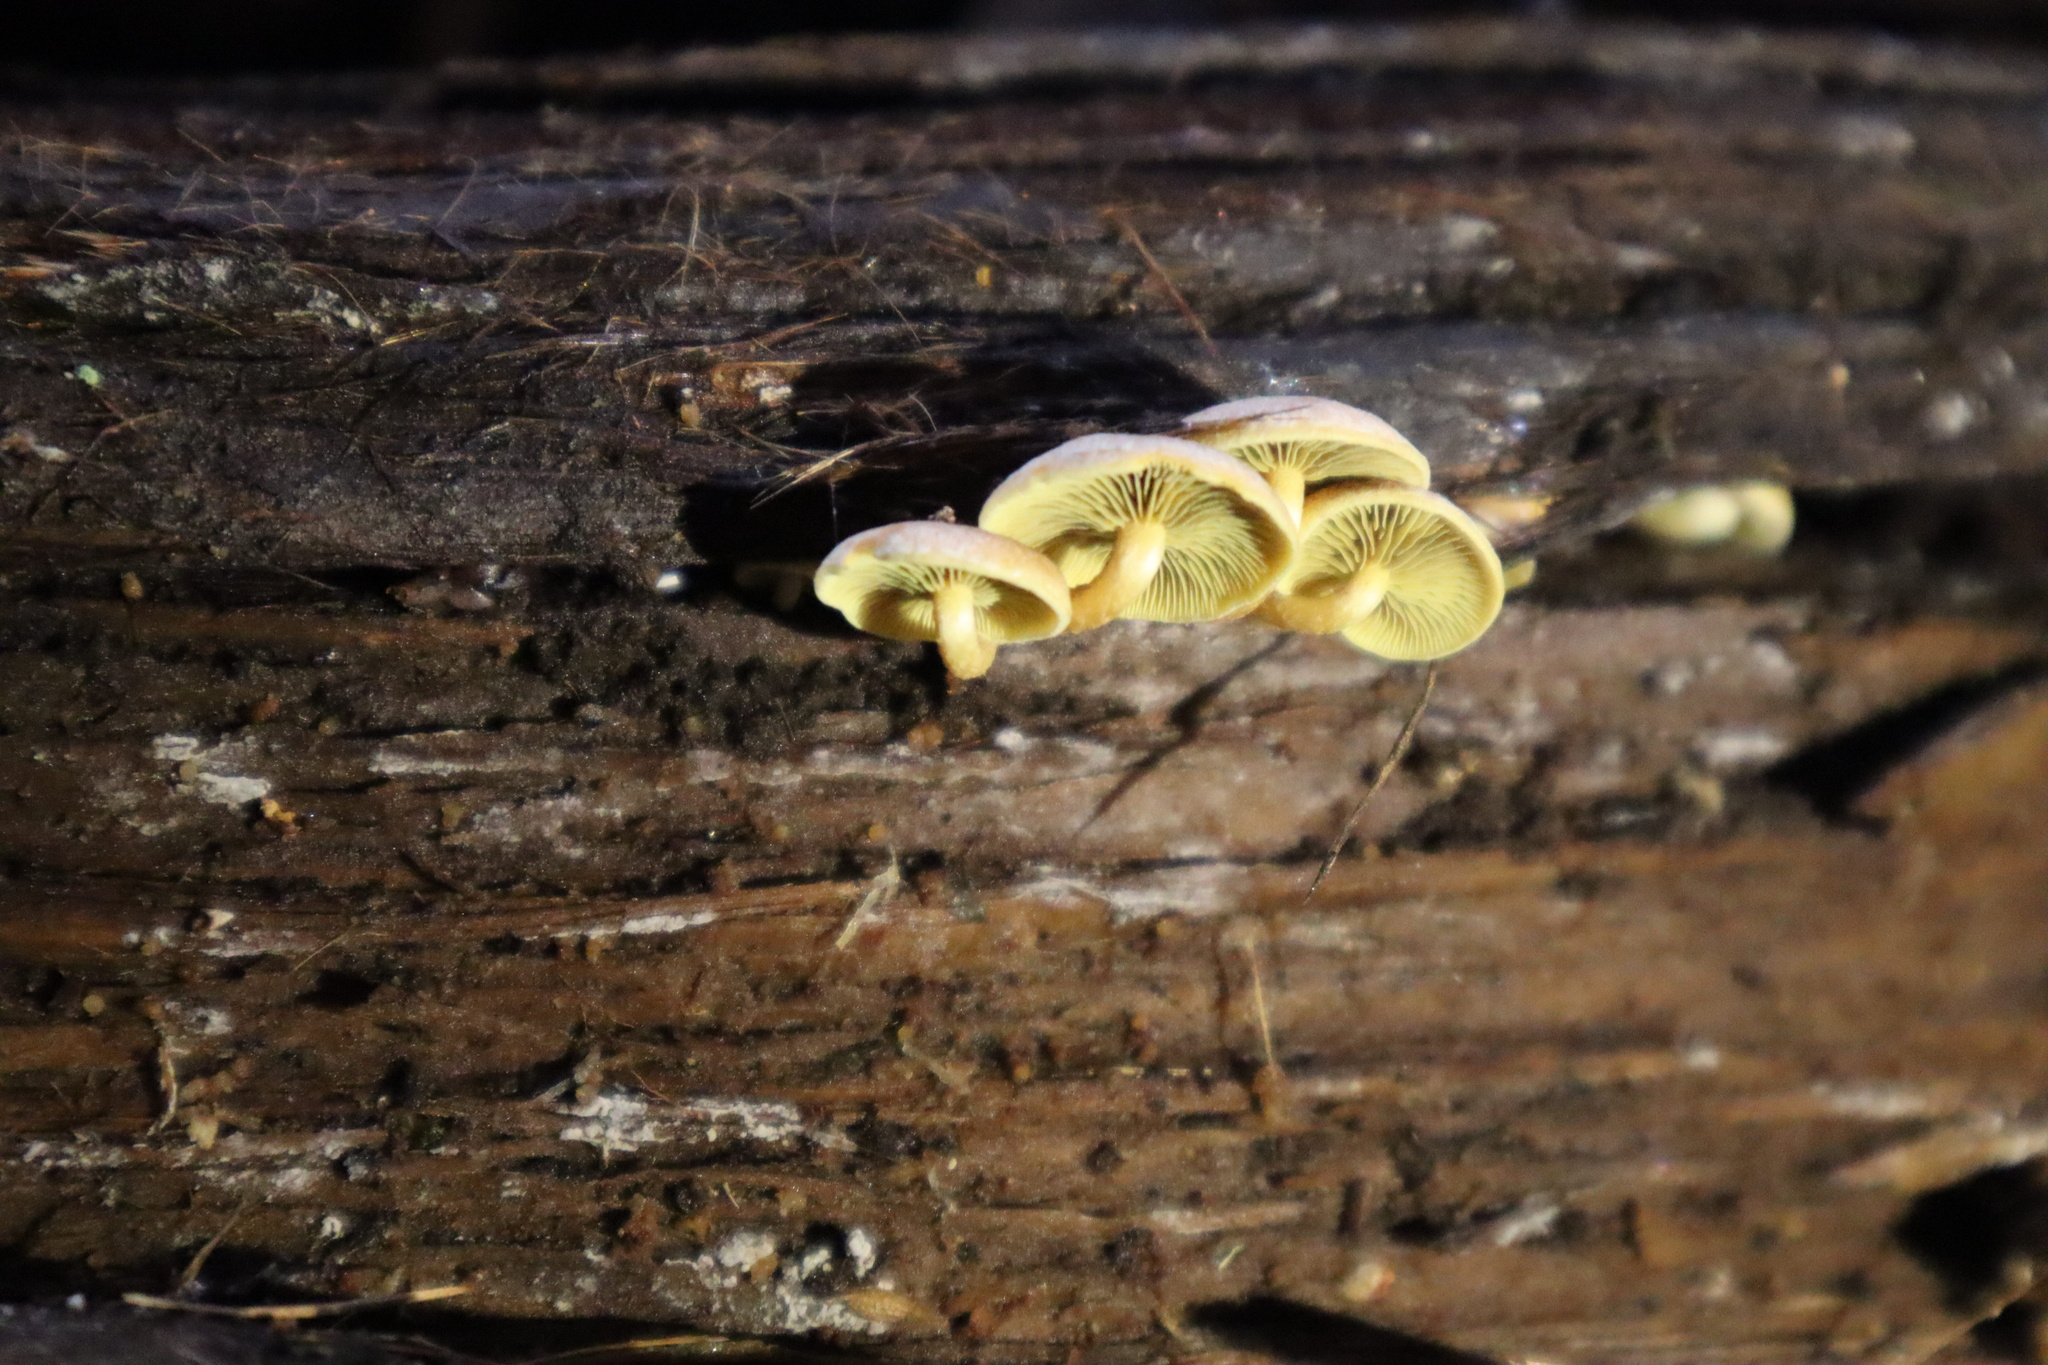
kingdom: Fungi
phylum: Basidiomycota
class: Agaricomycetes
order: Agaricales
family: Strophariaceae
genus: Hypholoma
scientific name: Hypholoma acutum
